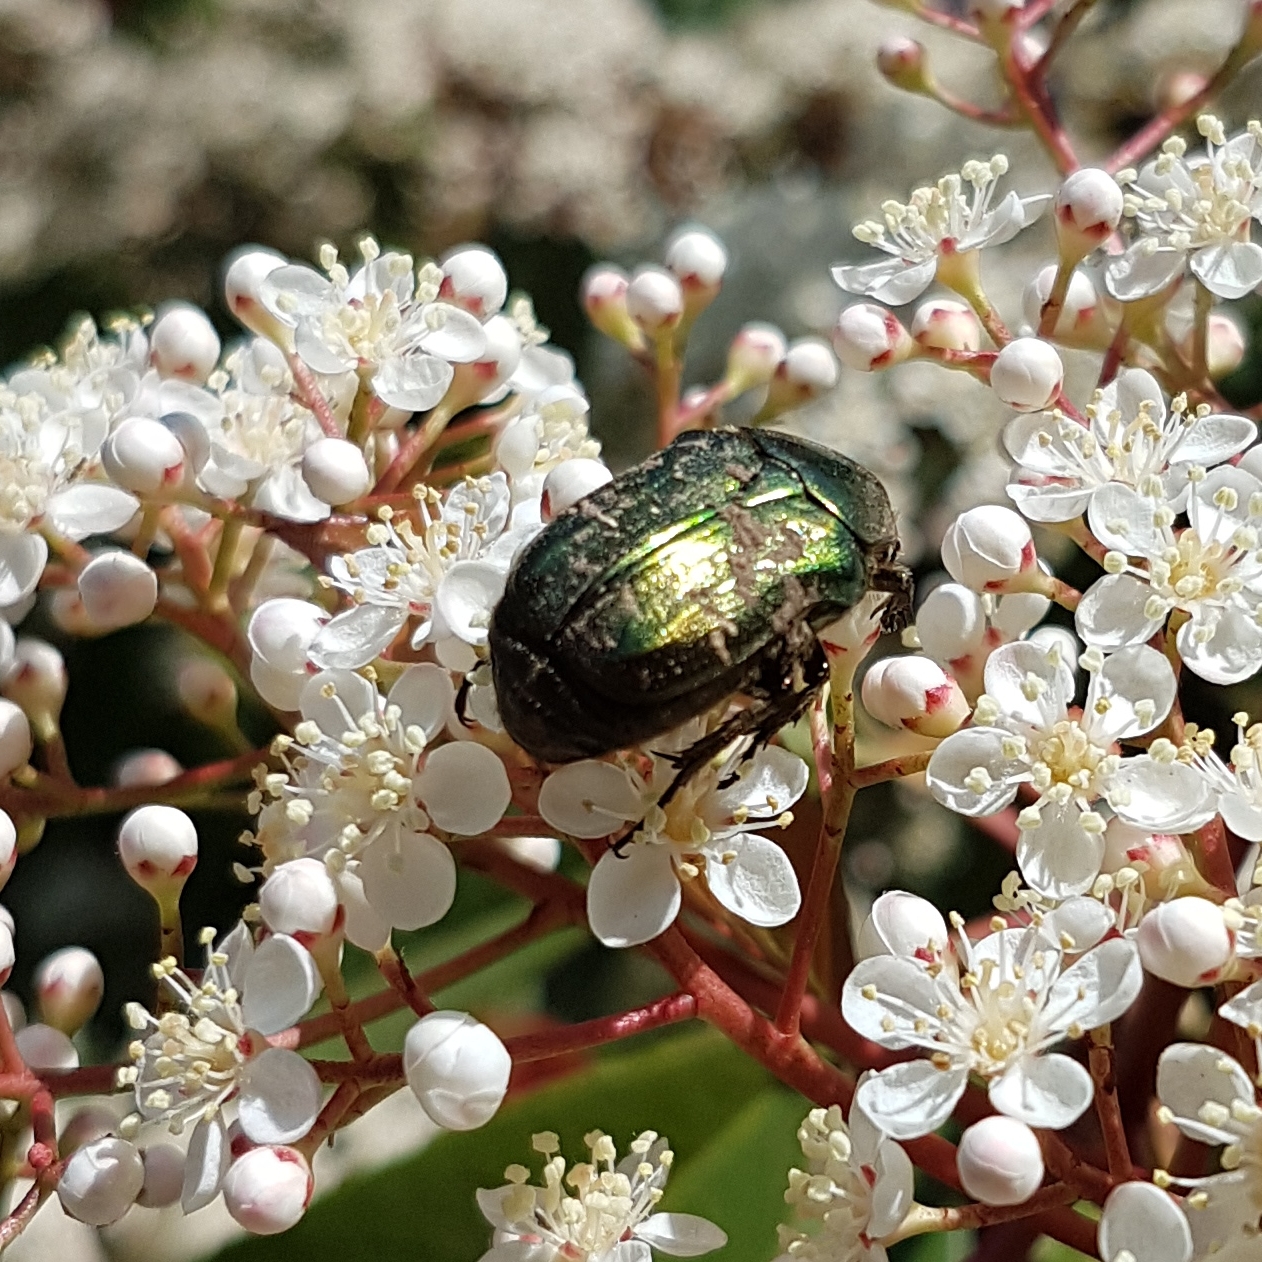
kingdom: Animalia
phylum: Arthropoda
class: Insecta
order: Coleoptera
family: Scarabaeidae
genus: Cetonia
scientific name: Cetonia aurata
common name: Rose chafer
